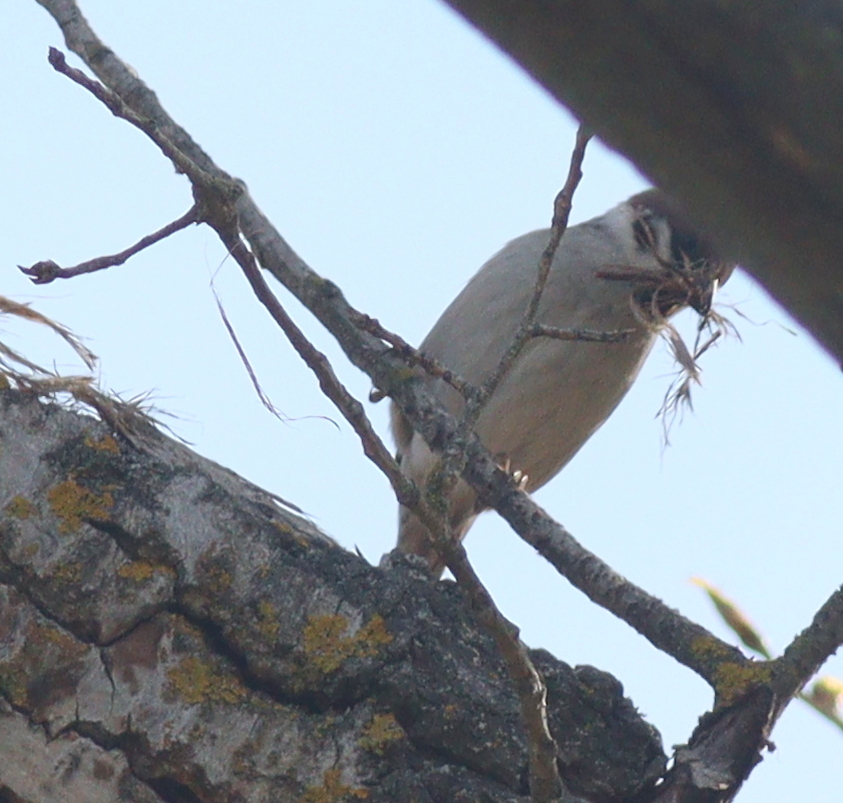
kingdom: Animalia
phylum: Chordata
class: Aves
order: Passeriformes
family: Passeridae
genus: Passer
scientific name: Passer montanus
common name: Eurasian tree sparrow
